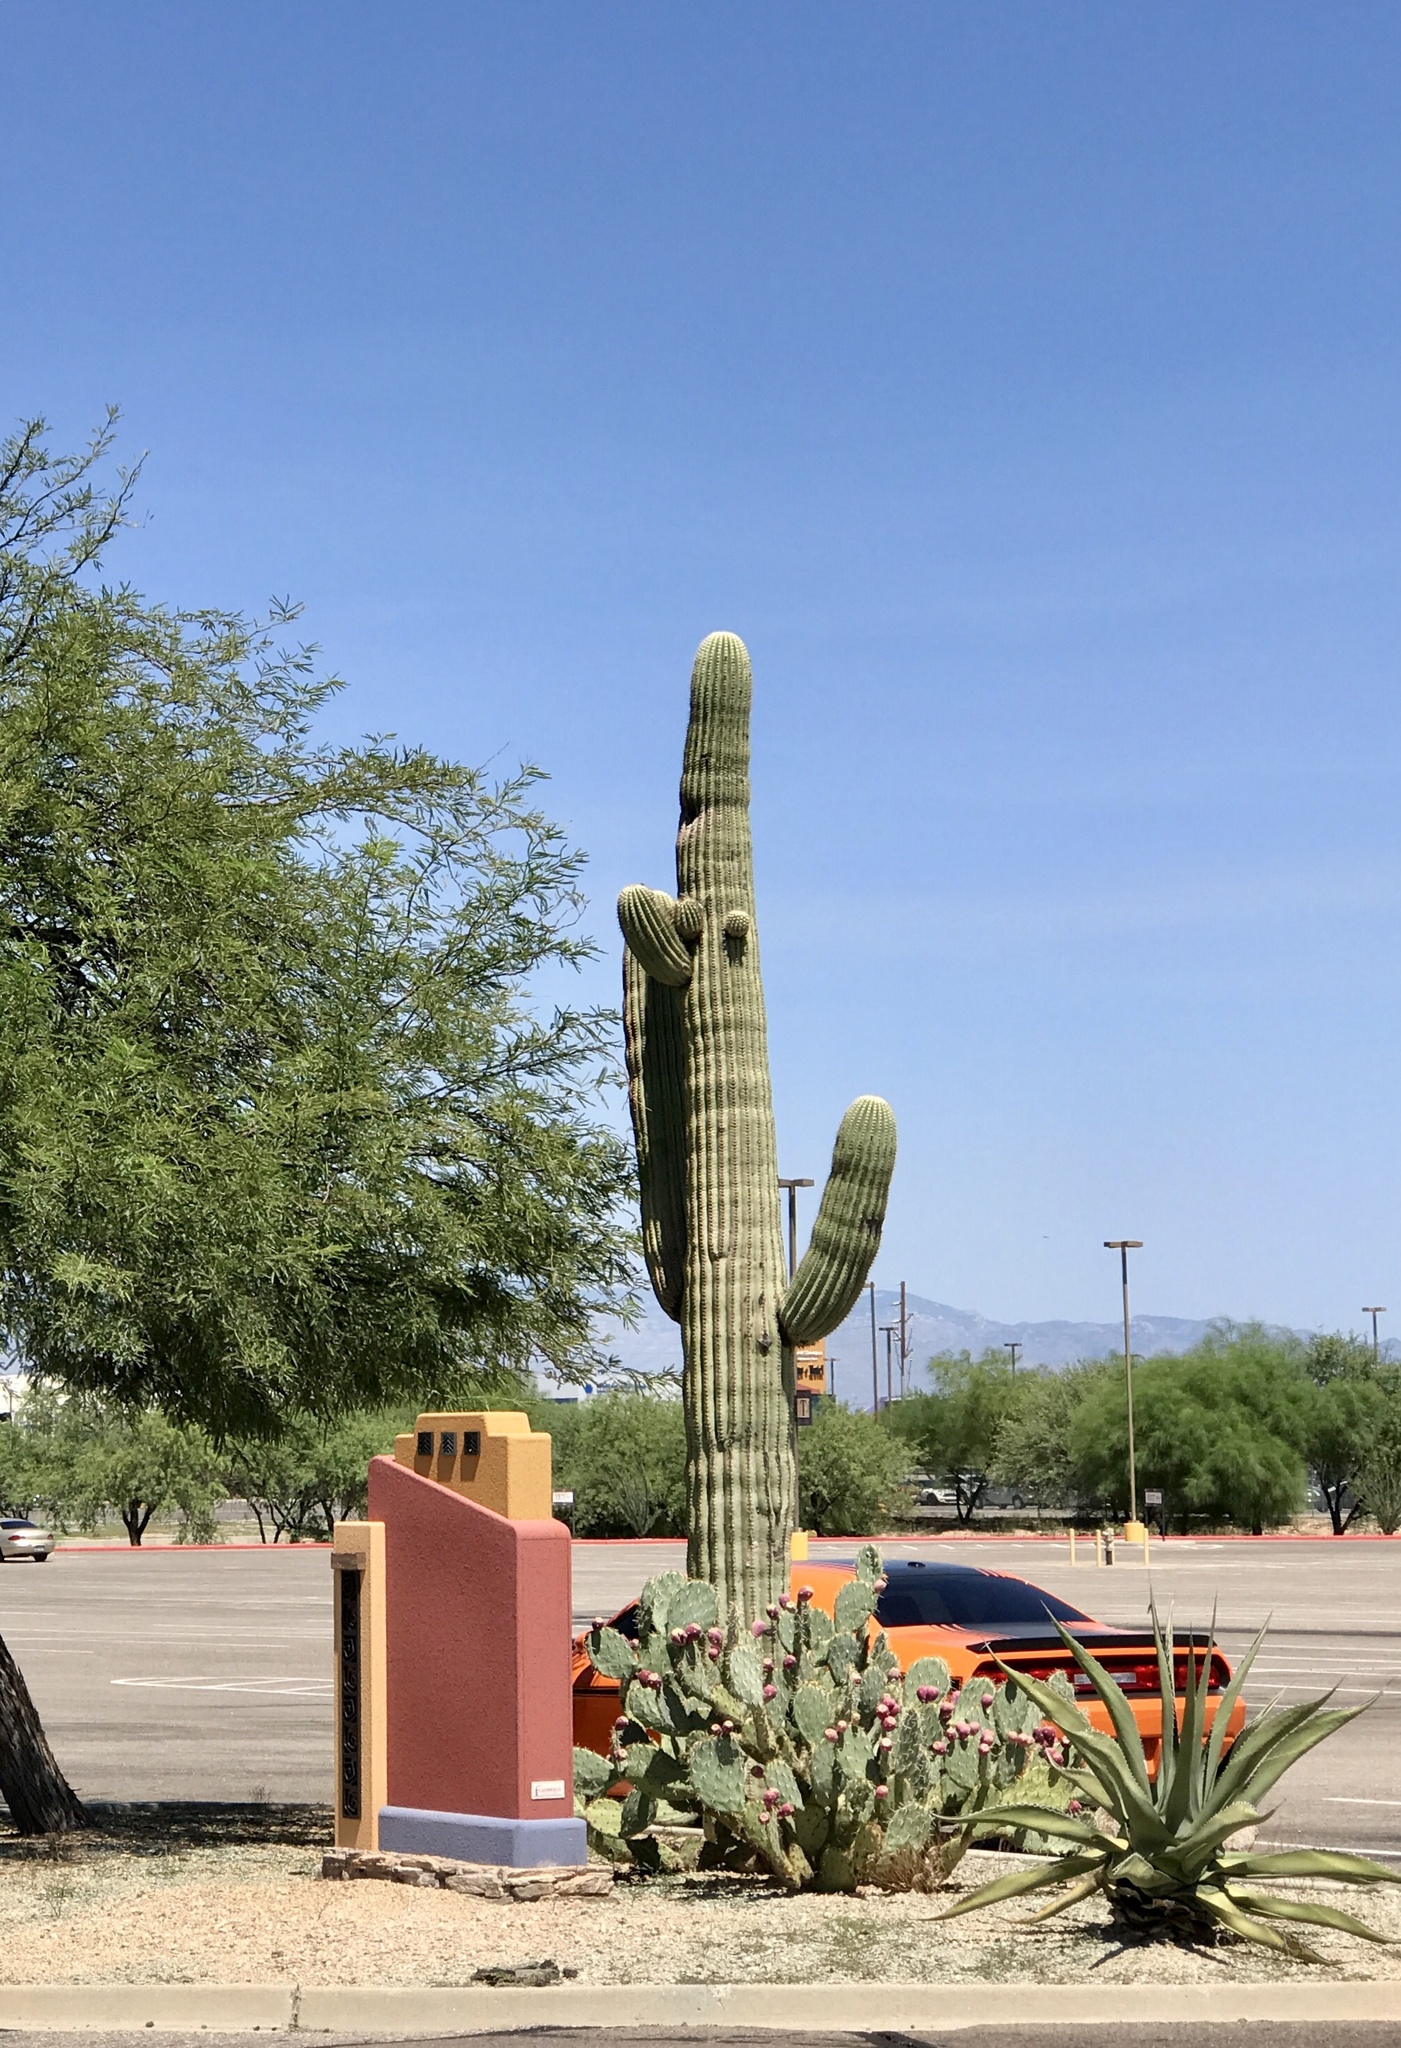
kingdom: Plantae
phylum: Tracheophyta
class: Magnoliopsida
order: Caryophyllales
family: Cactaceae
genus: Carnegiea
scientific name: Carnegiea gigantea
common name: Saguaro
